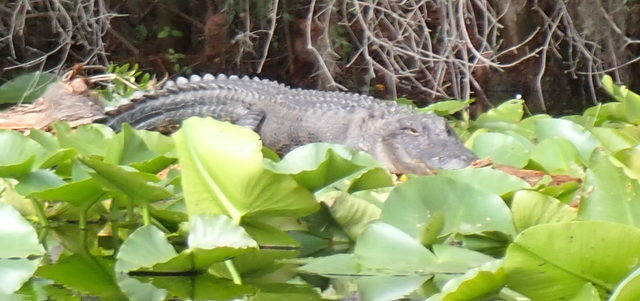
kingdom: Animalia
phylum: Chordata
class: Crocodylia
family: Alligatoridae
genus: Alligator
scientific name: Alligator mississippiensis
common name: American alligator
